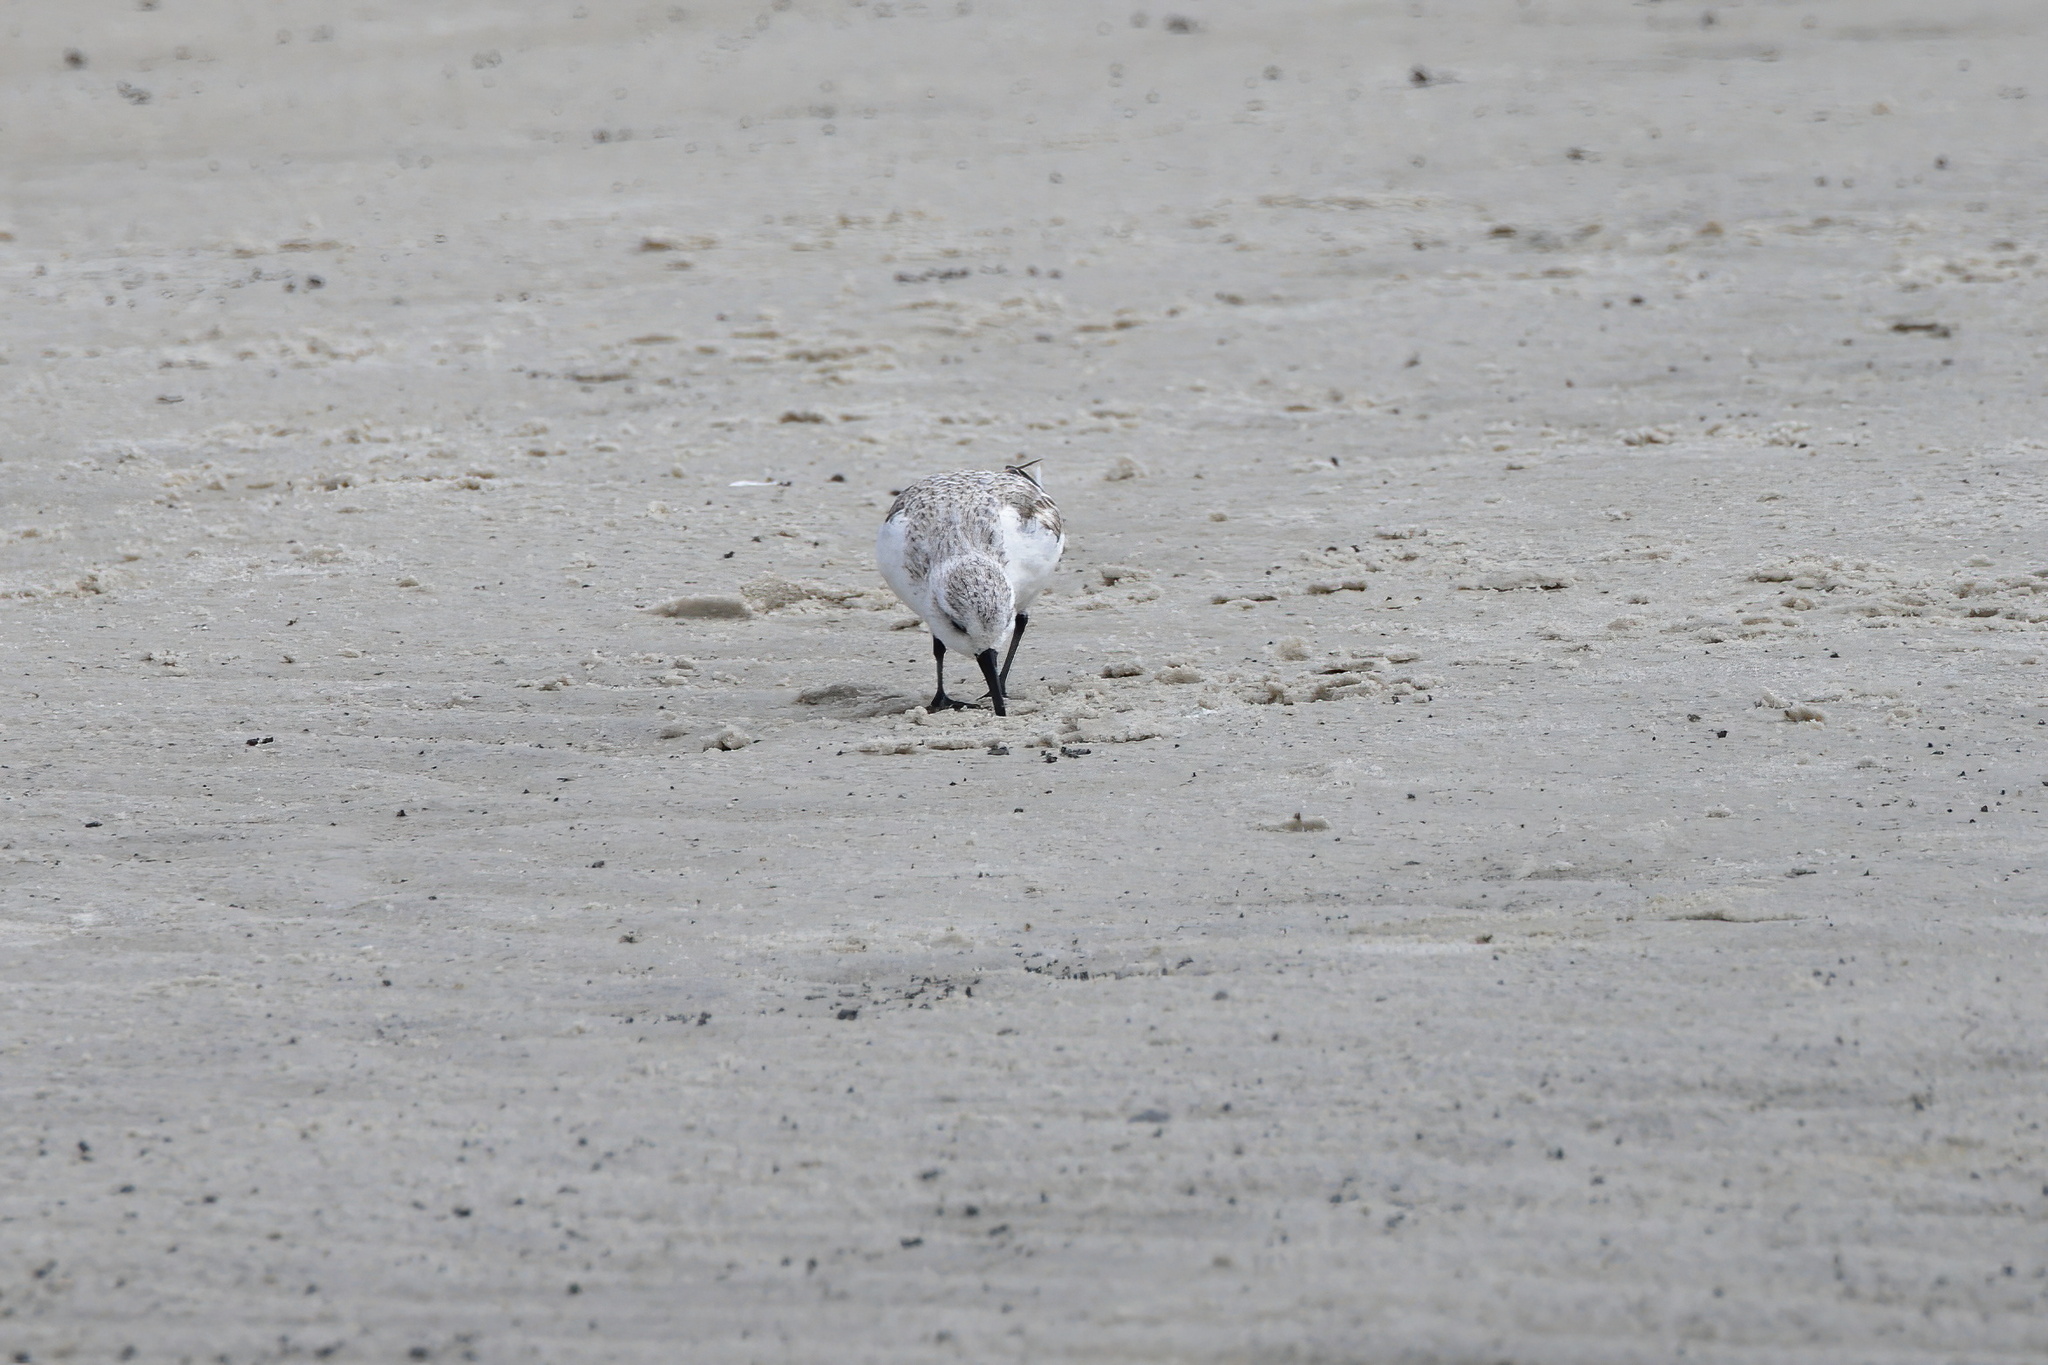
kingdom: Animalia
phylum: Chordata
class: Aves
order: Charadriiformes
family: Scolopacidae
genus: Calidris
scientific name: Calidris alba
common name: Sanderling
